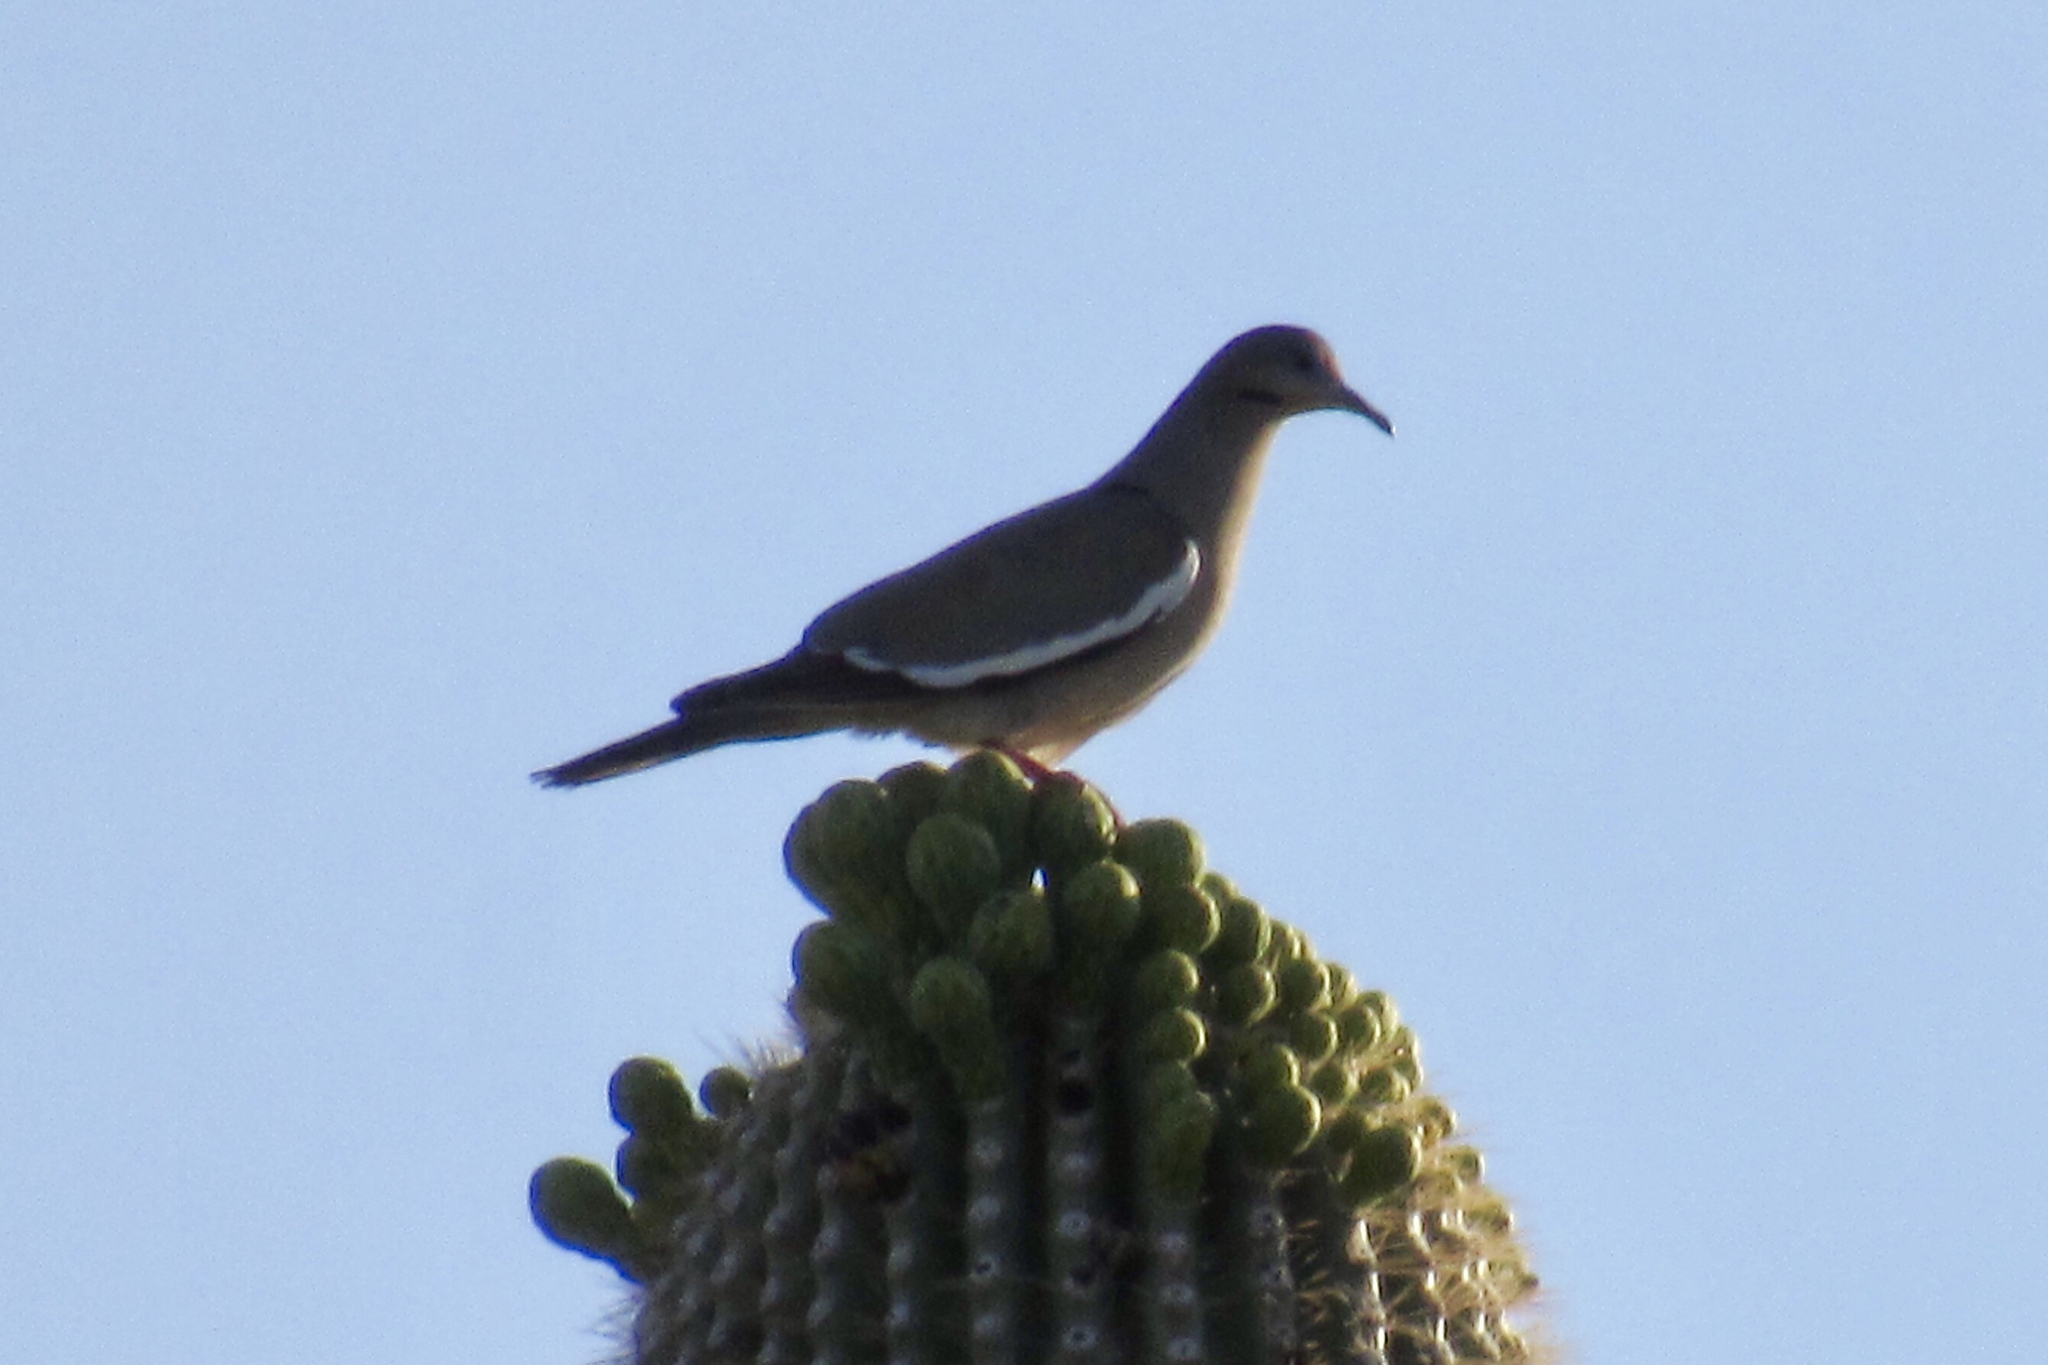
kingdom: Animalia
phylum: Chordata
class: Aves
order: Columbiformes
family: Columbidae
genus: Zenaida
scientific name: Zenaida asiatica
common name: White-winged dove
